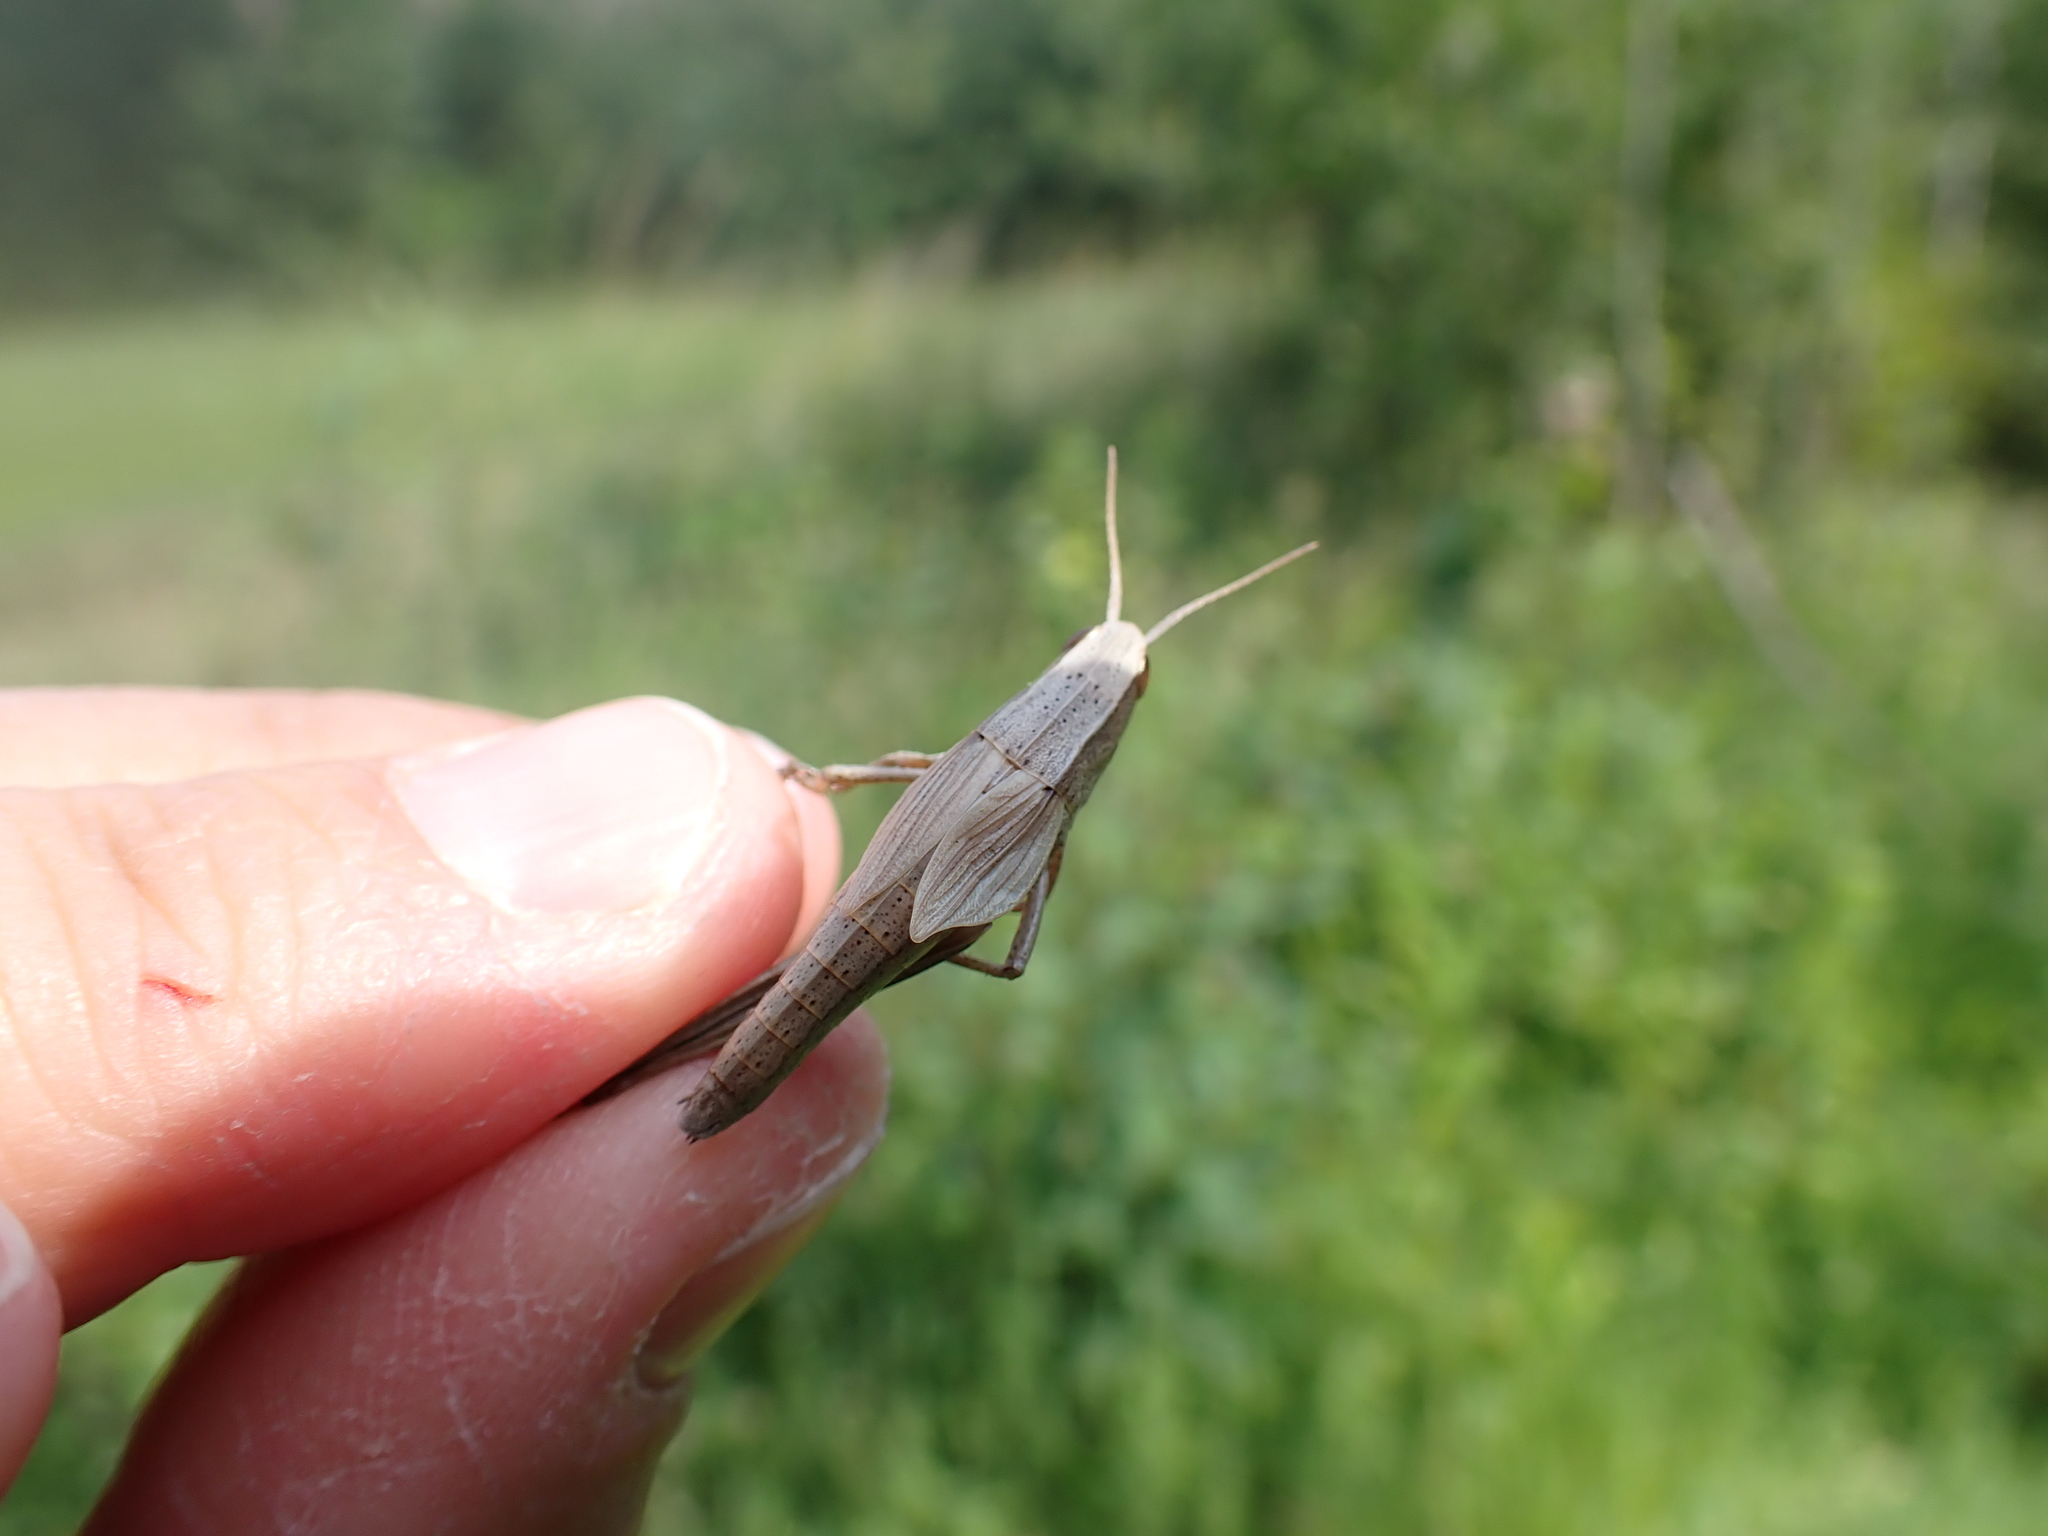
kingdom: Animalia
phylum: Arthropoda
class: Insecta
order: Orthoptera
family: Acrididae
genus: Chrysochraon
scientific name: Chrysochraon dispar
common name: Large gold grasshopper
